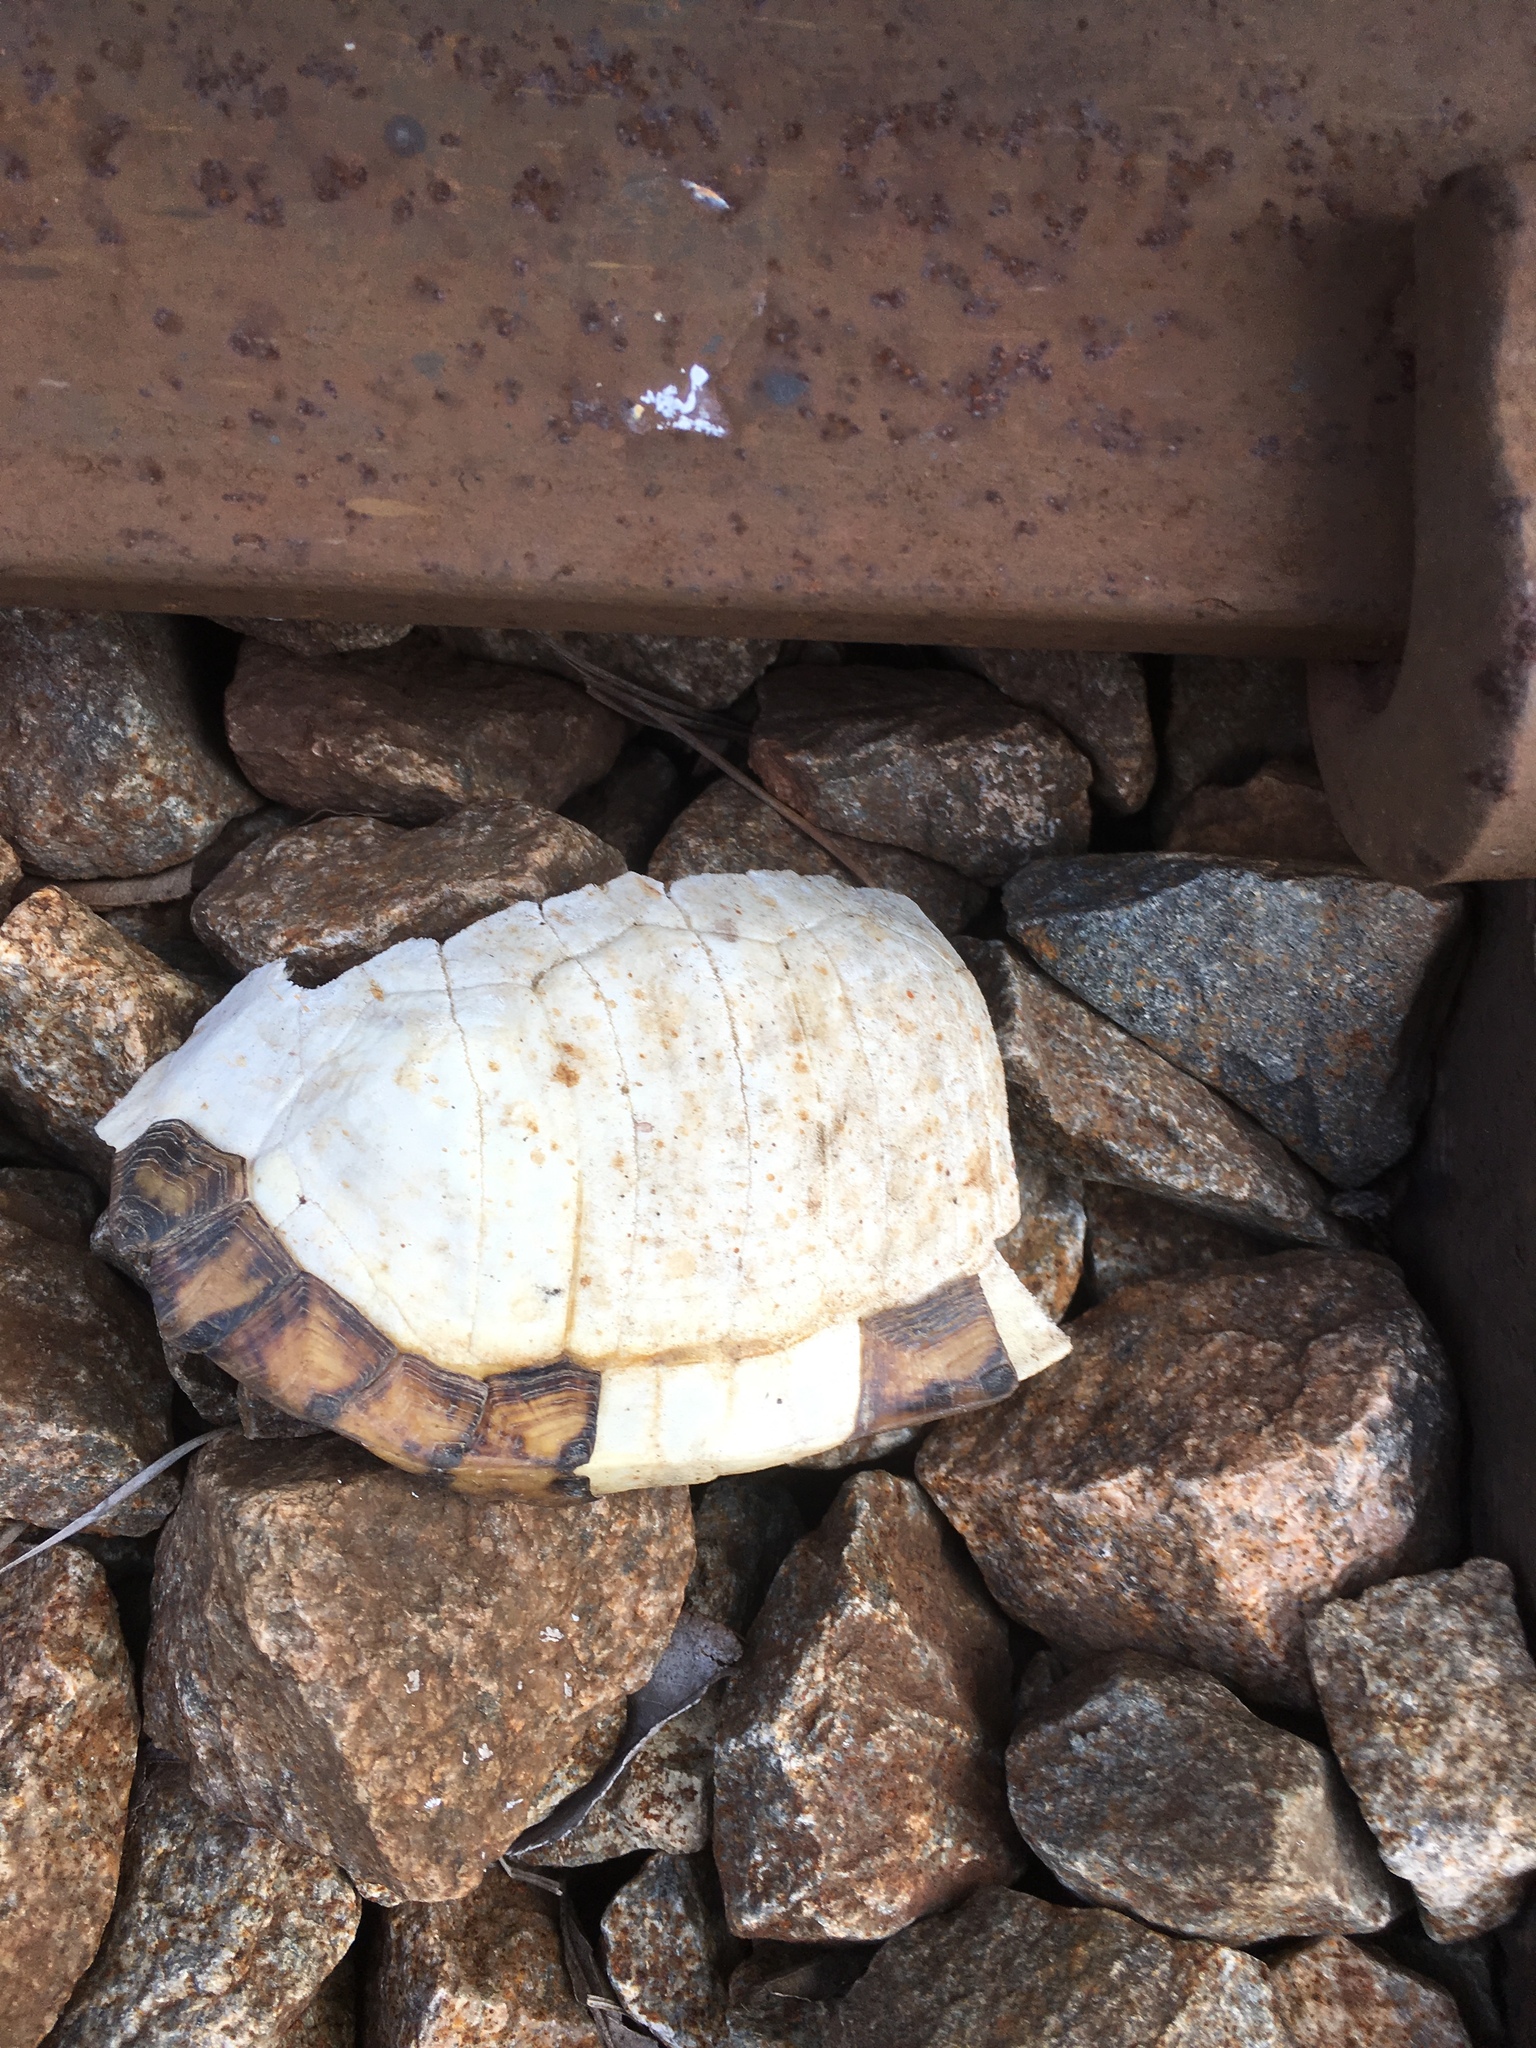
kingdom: Animalia
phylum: Chordata
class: Testudines
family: Emydidae
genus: Terrapene
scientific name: Terrapene carolina
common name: Common box turtle
